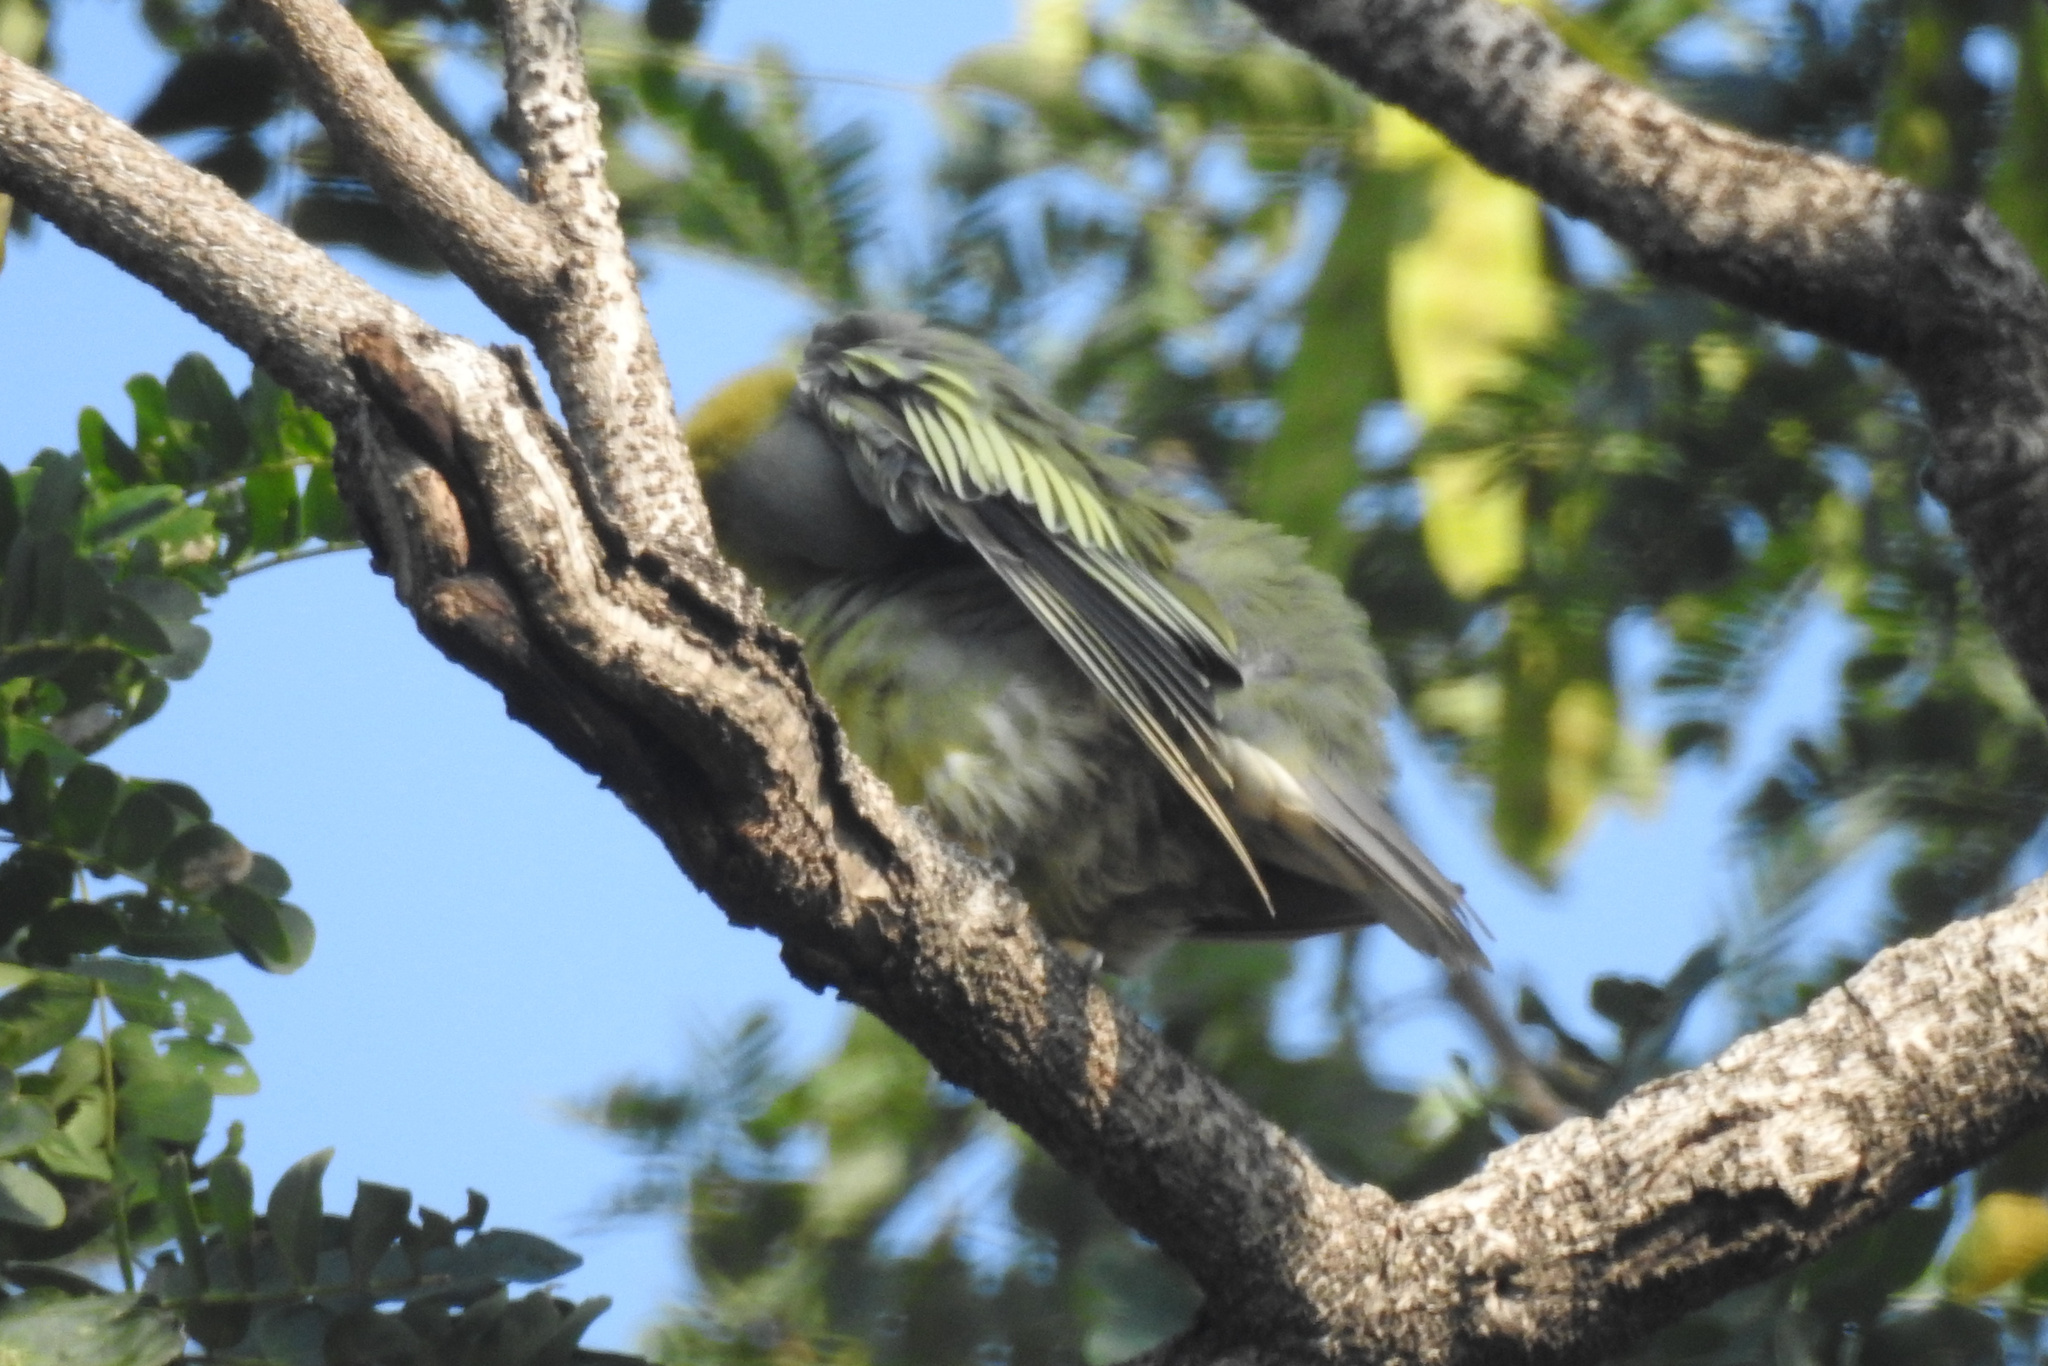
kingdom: Animalia
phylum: Chordata
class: Aves
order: Columbiformes
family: Columbidae
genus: Treron
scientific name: Treron phoenicopterus
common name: Yellow-footed green pigeon
